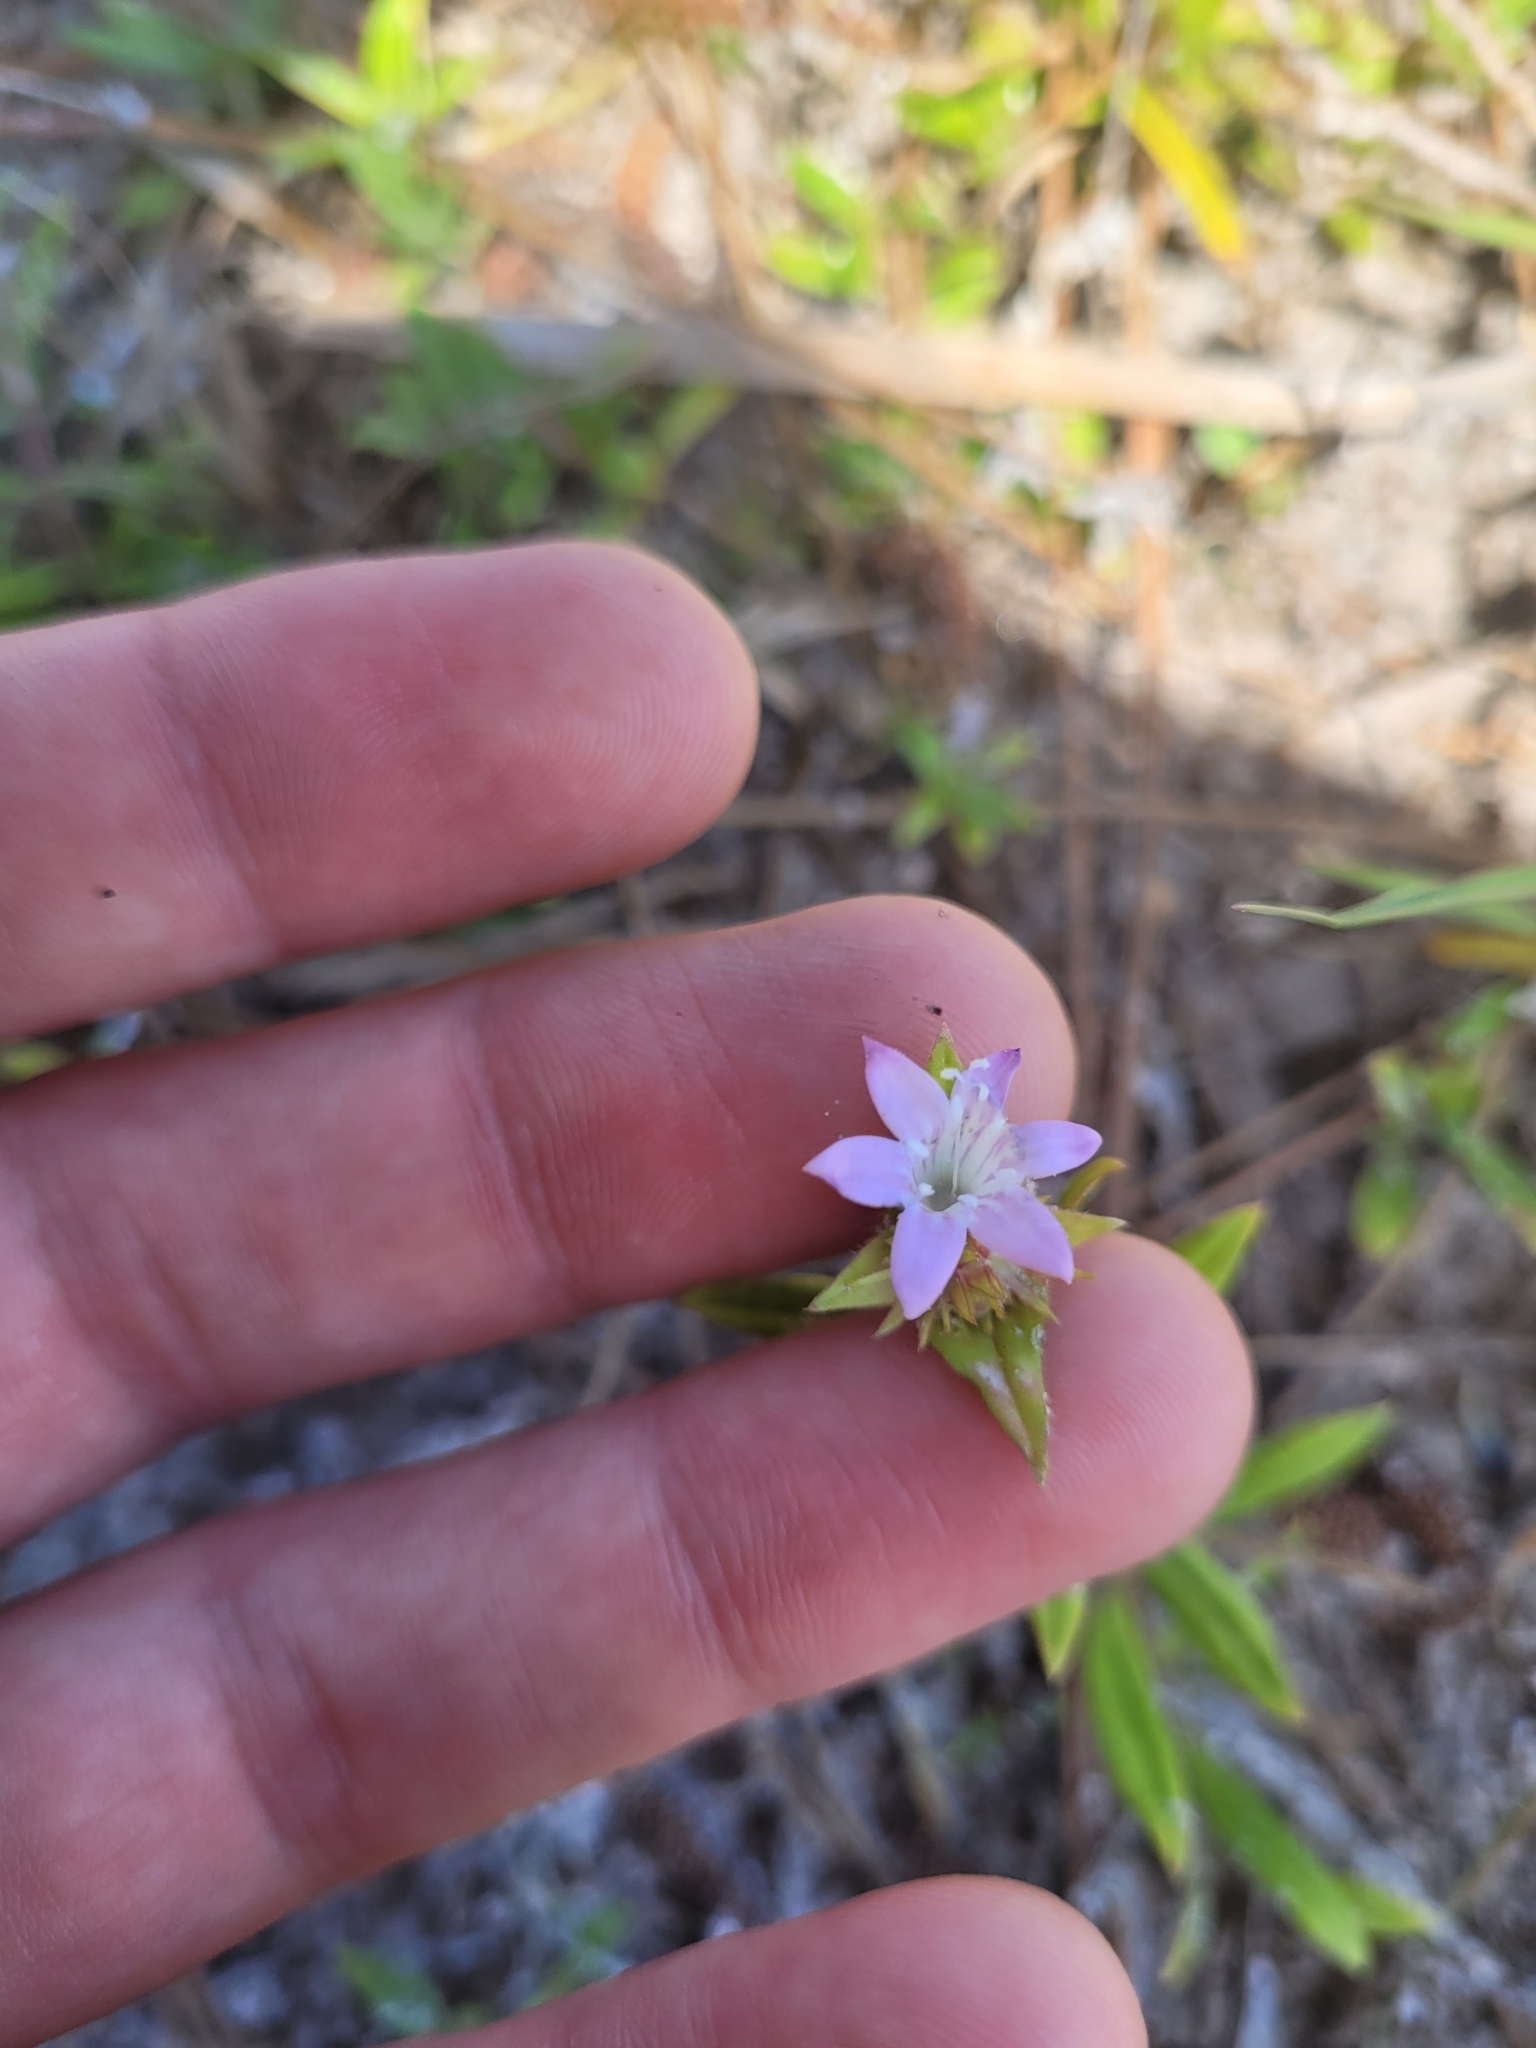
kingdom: Plantae
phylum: Tracheophyta
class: Magnoliopsida
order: Gentianales
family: Rubiaceae
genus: Richardia
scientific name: Richardia grandiflora
